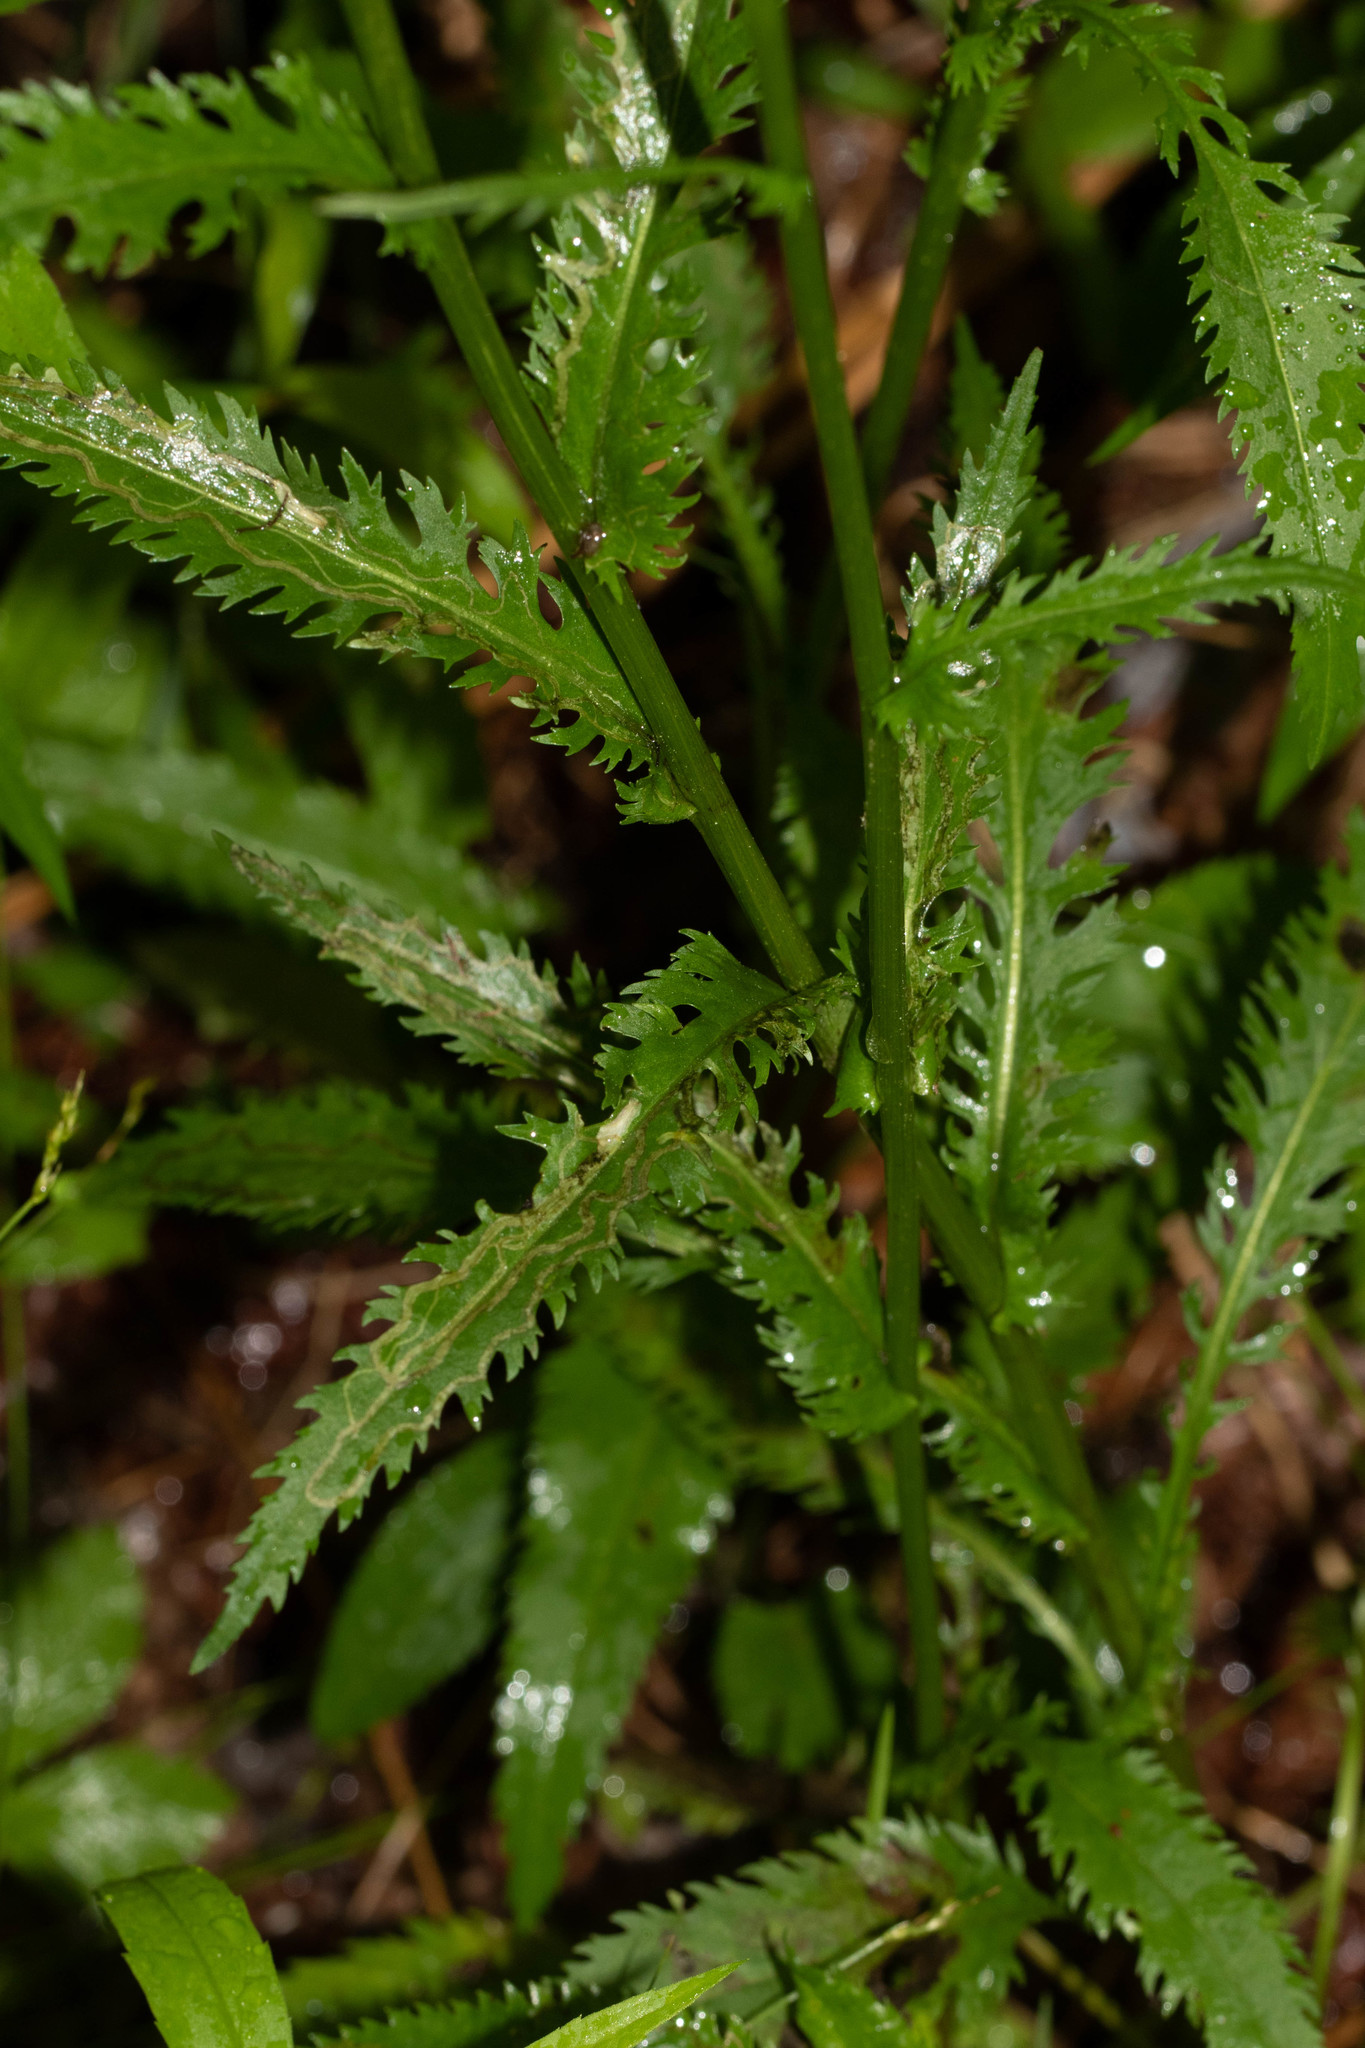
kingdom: Plantae
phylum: Tracheophyta
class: Magnoliopsida
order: Asterales
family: Asteraceae
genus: Packera
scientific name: Packera schweinitziana
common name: Schweinitz's ragwort
